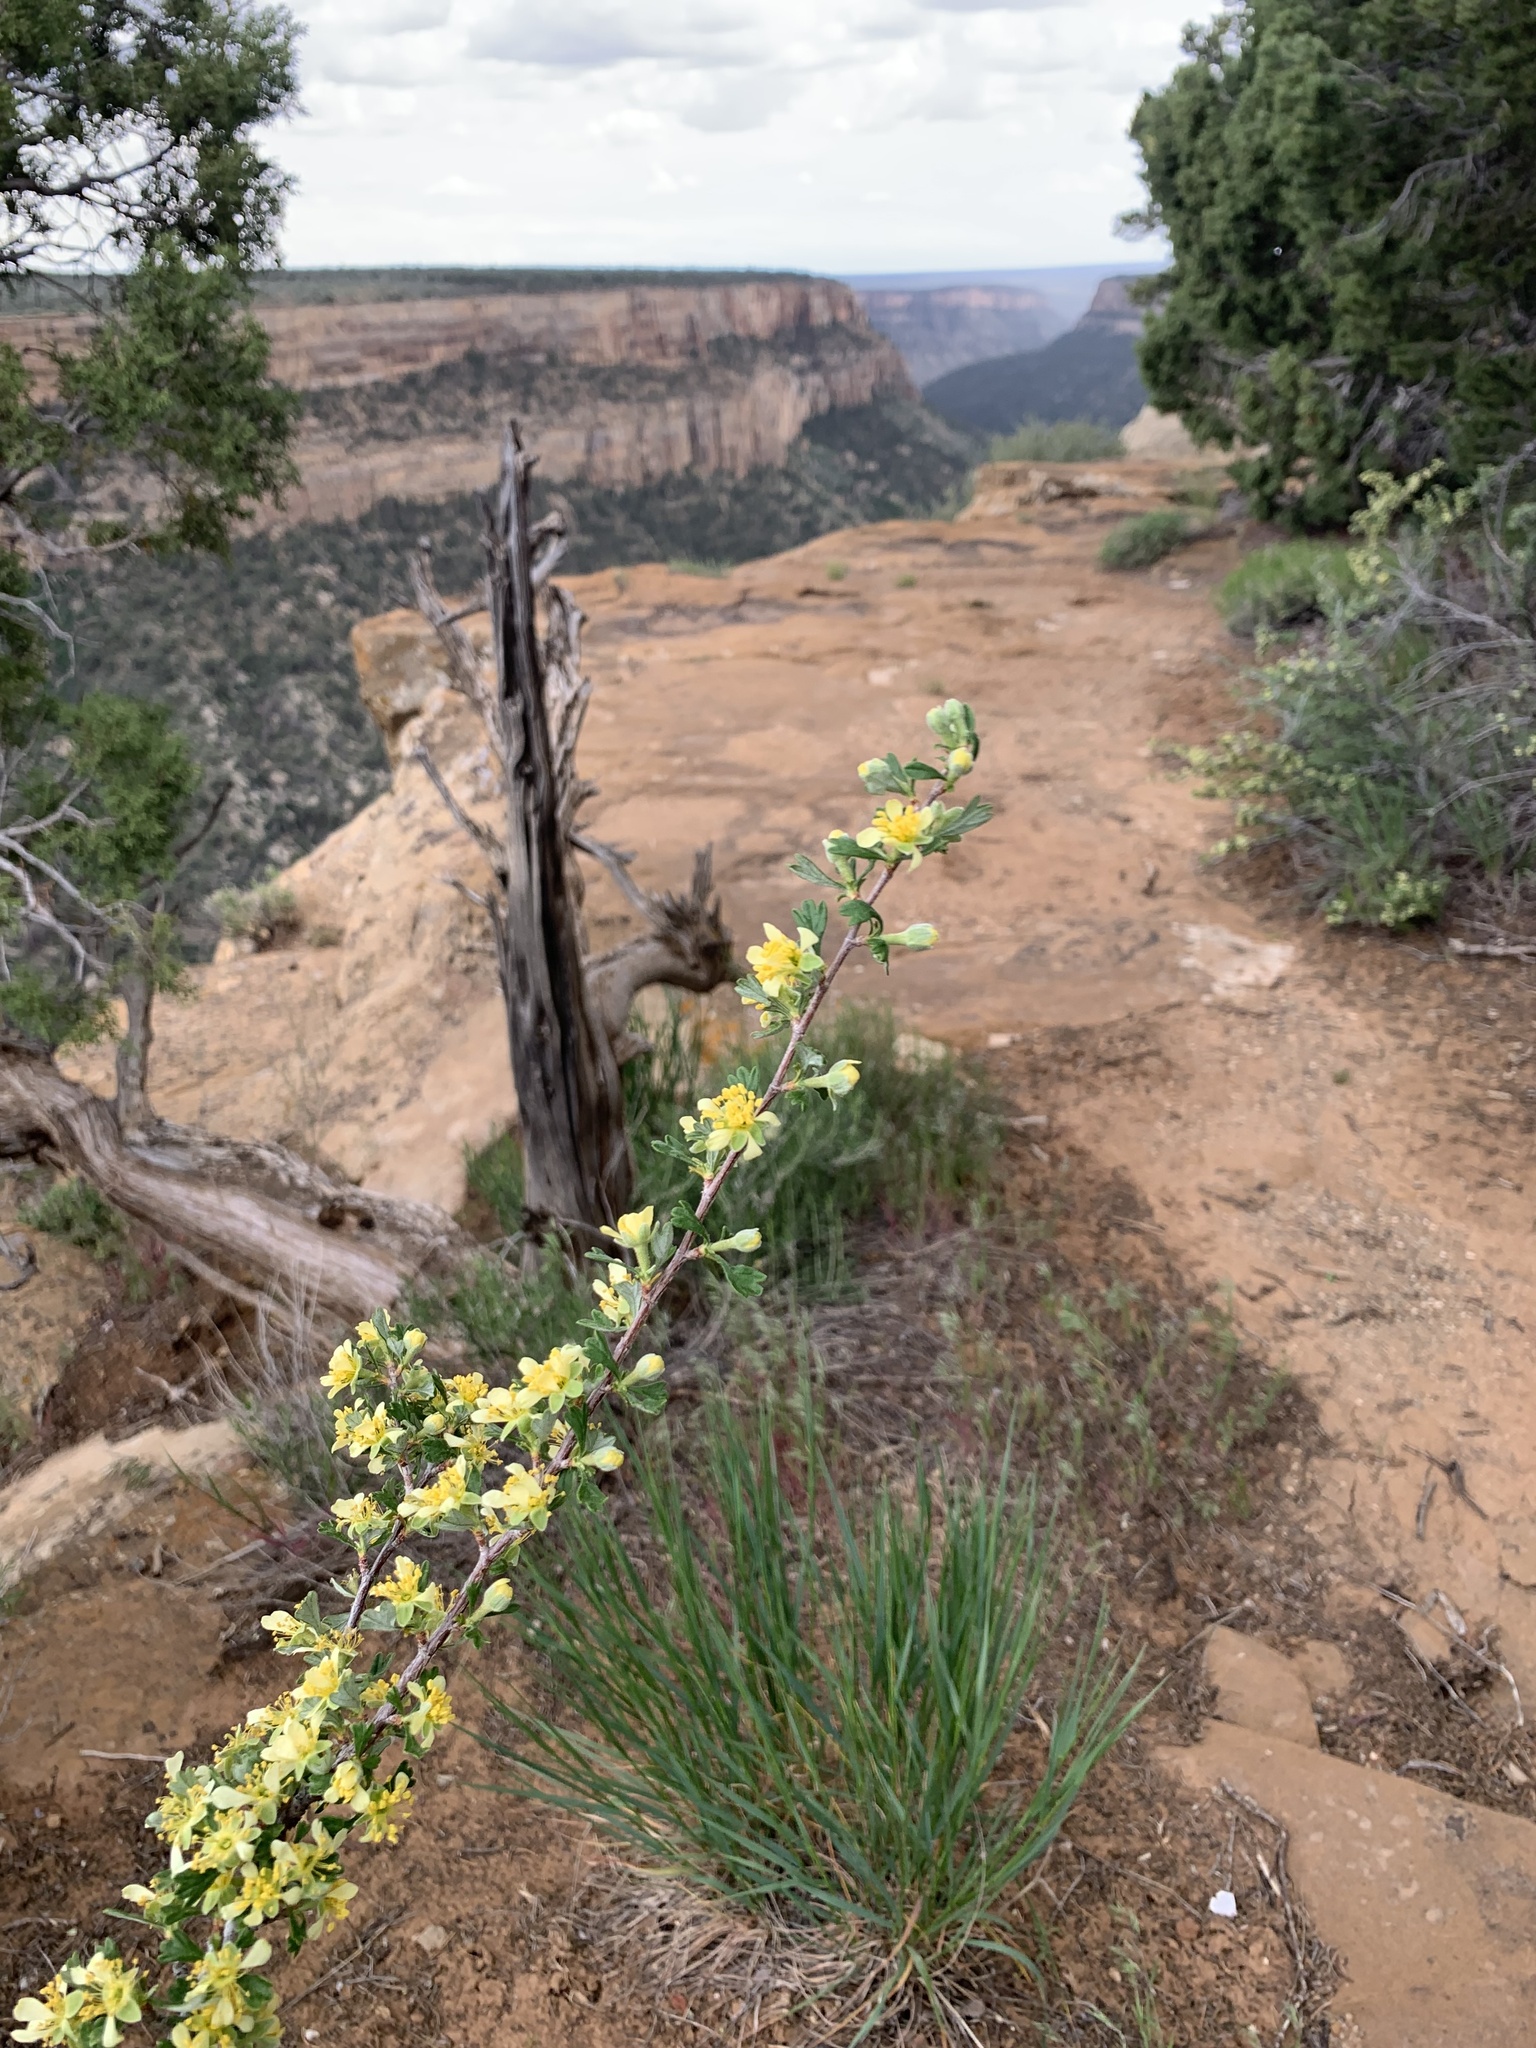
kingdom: Plantae
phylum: Tracheophyta
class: Magnoliopsida
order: Rosales
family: Rosaceae
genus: Purshia
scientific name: Purshia tridentata
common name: Antelope bitterbrush
